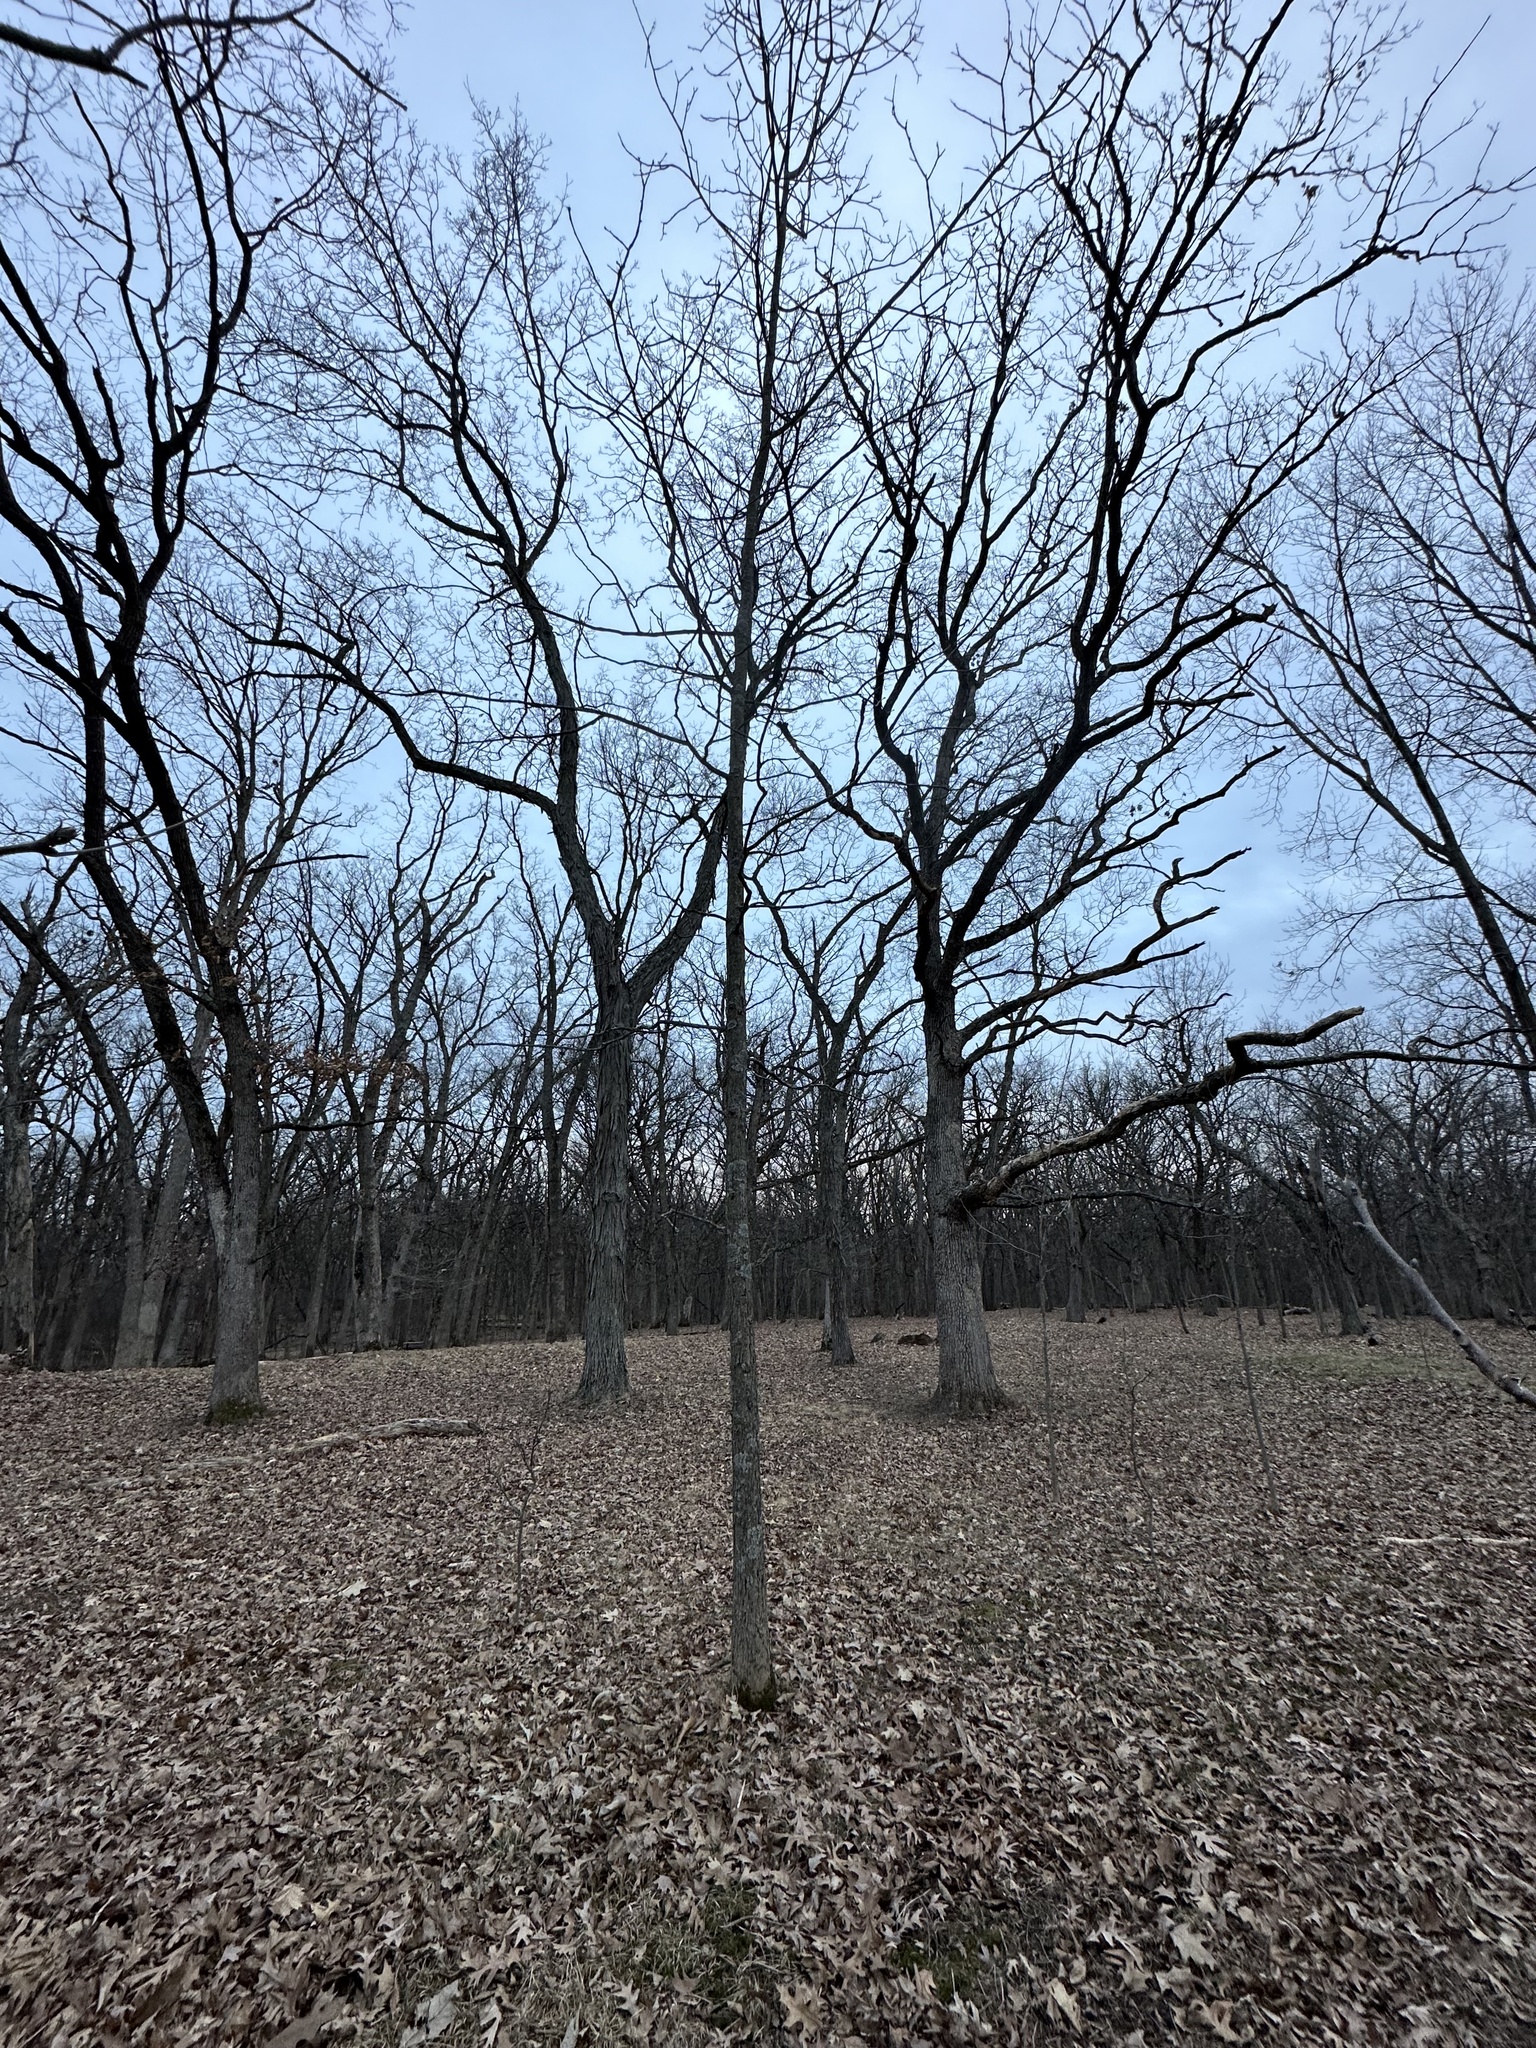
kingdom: Plantae
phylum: Tracheophyta
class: Magnoliopsida
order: Fagales
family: Juglandaceae
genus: Carya
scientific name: Carya ovata
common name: Shagbark hickory
